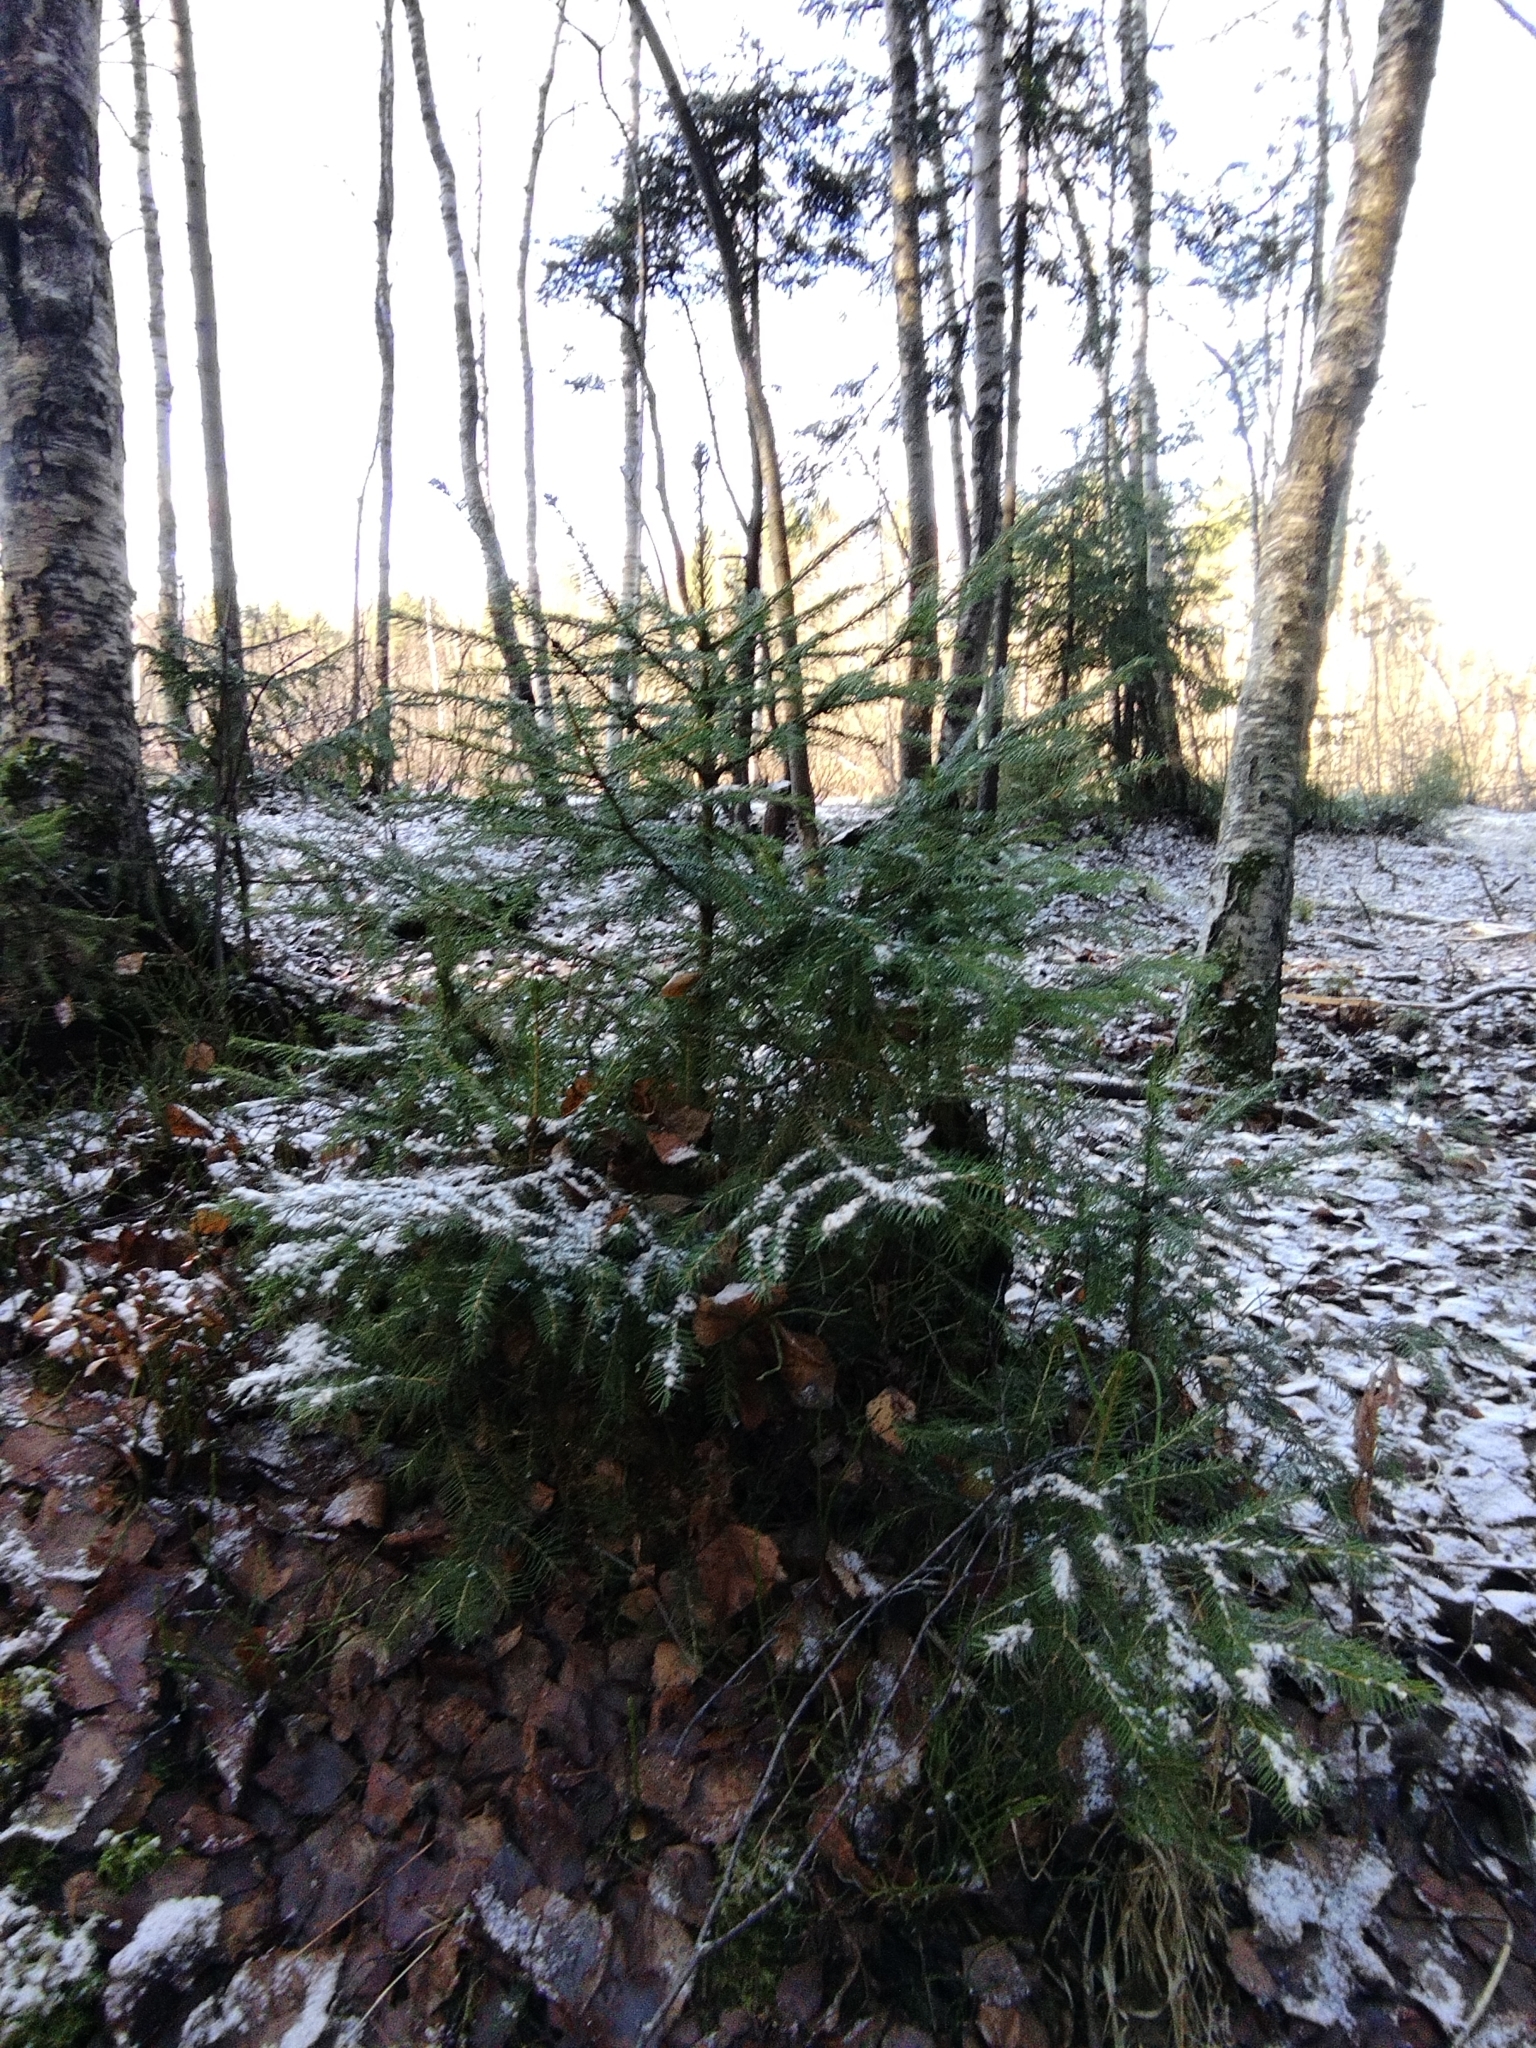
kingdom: Plantae
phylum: Tracheophyta
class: Pinopsida
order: Pinales
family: Pinaceae
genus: Picea
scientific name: Picea abies
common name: Norway spruce
